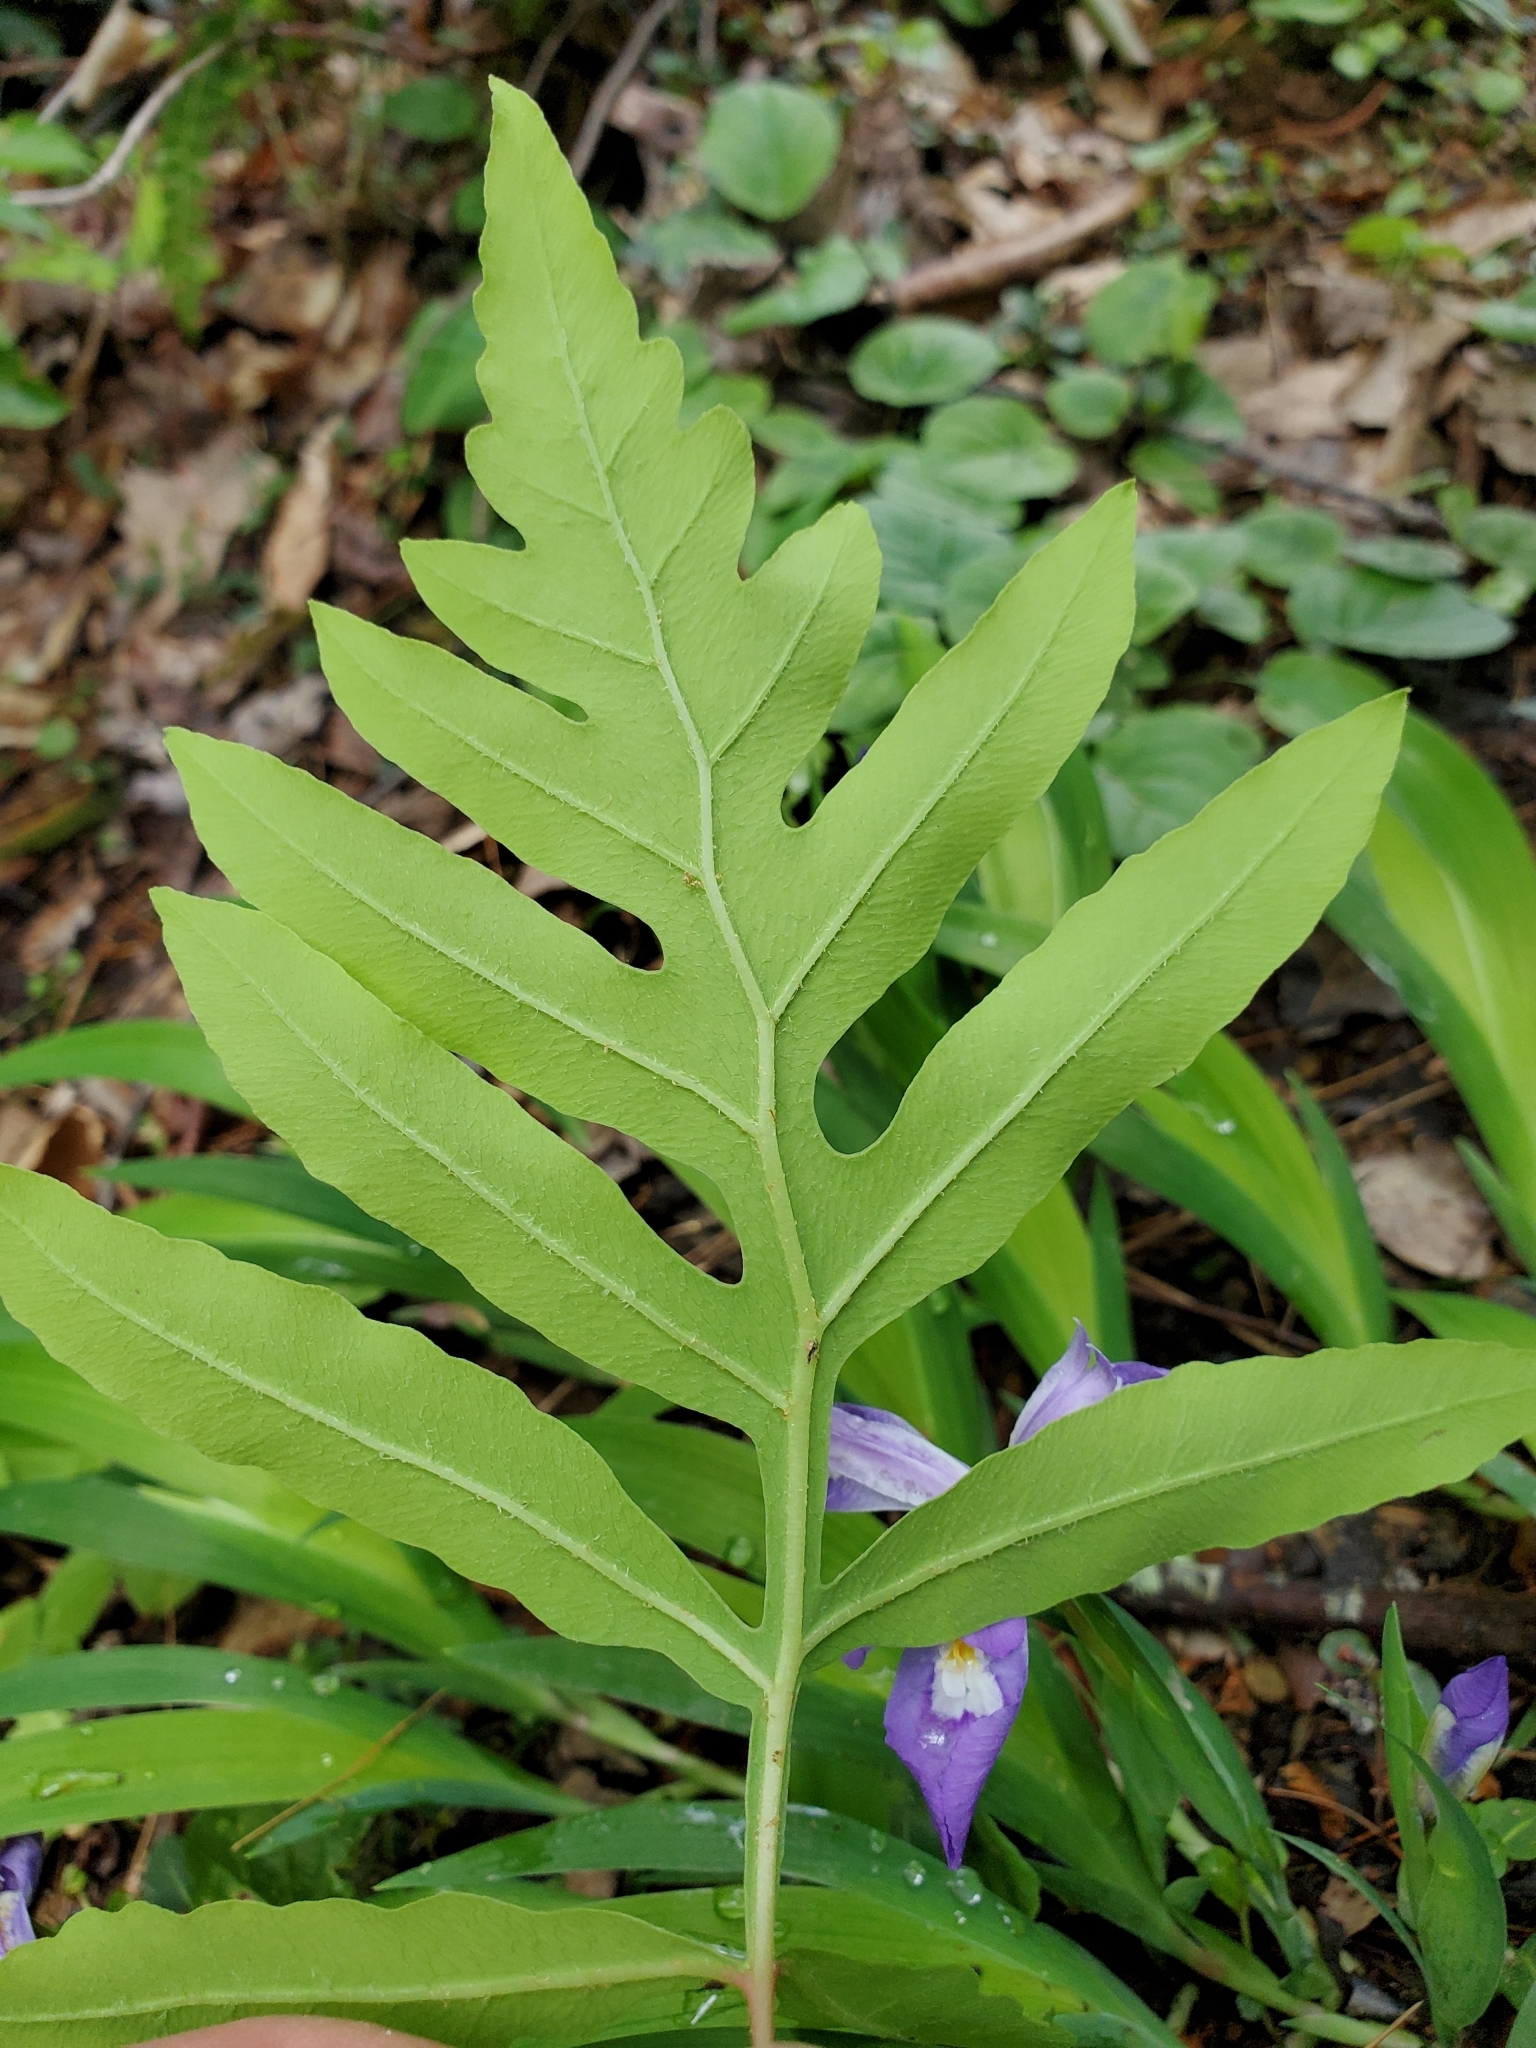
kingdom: Plantae
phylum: Tracheophyta
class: Polypodiopsida
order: Polypodiales
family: Onocleaceae
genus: Onoclea
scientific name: Onoclea sensibilis
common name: Sensitive fern
